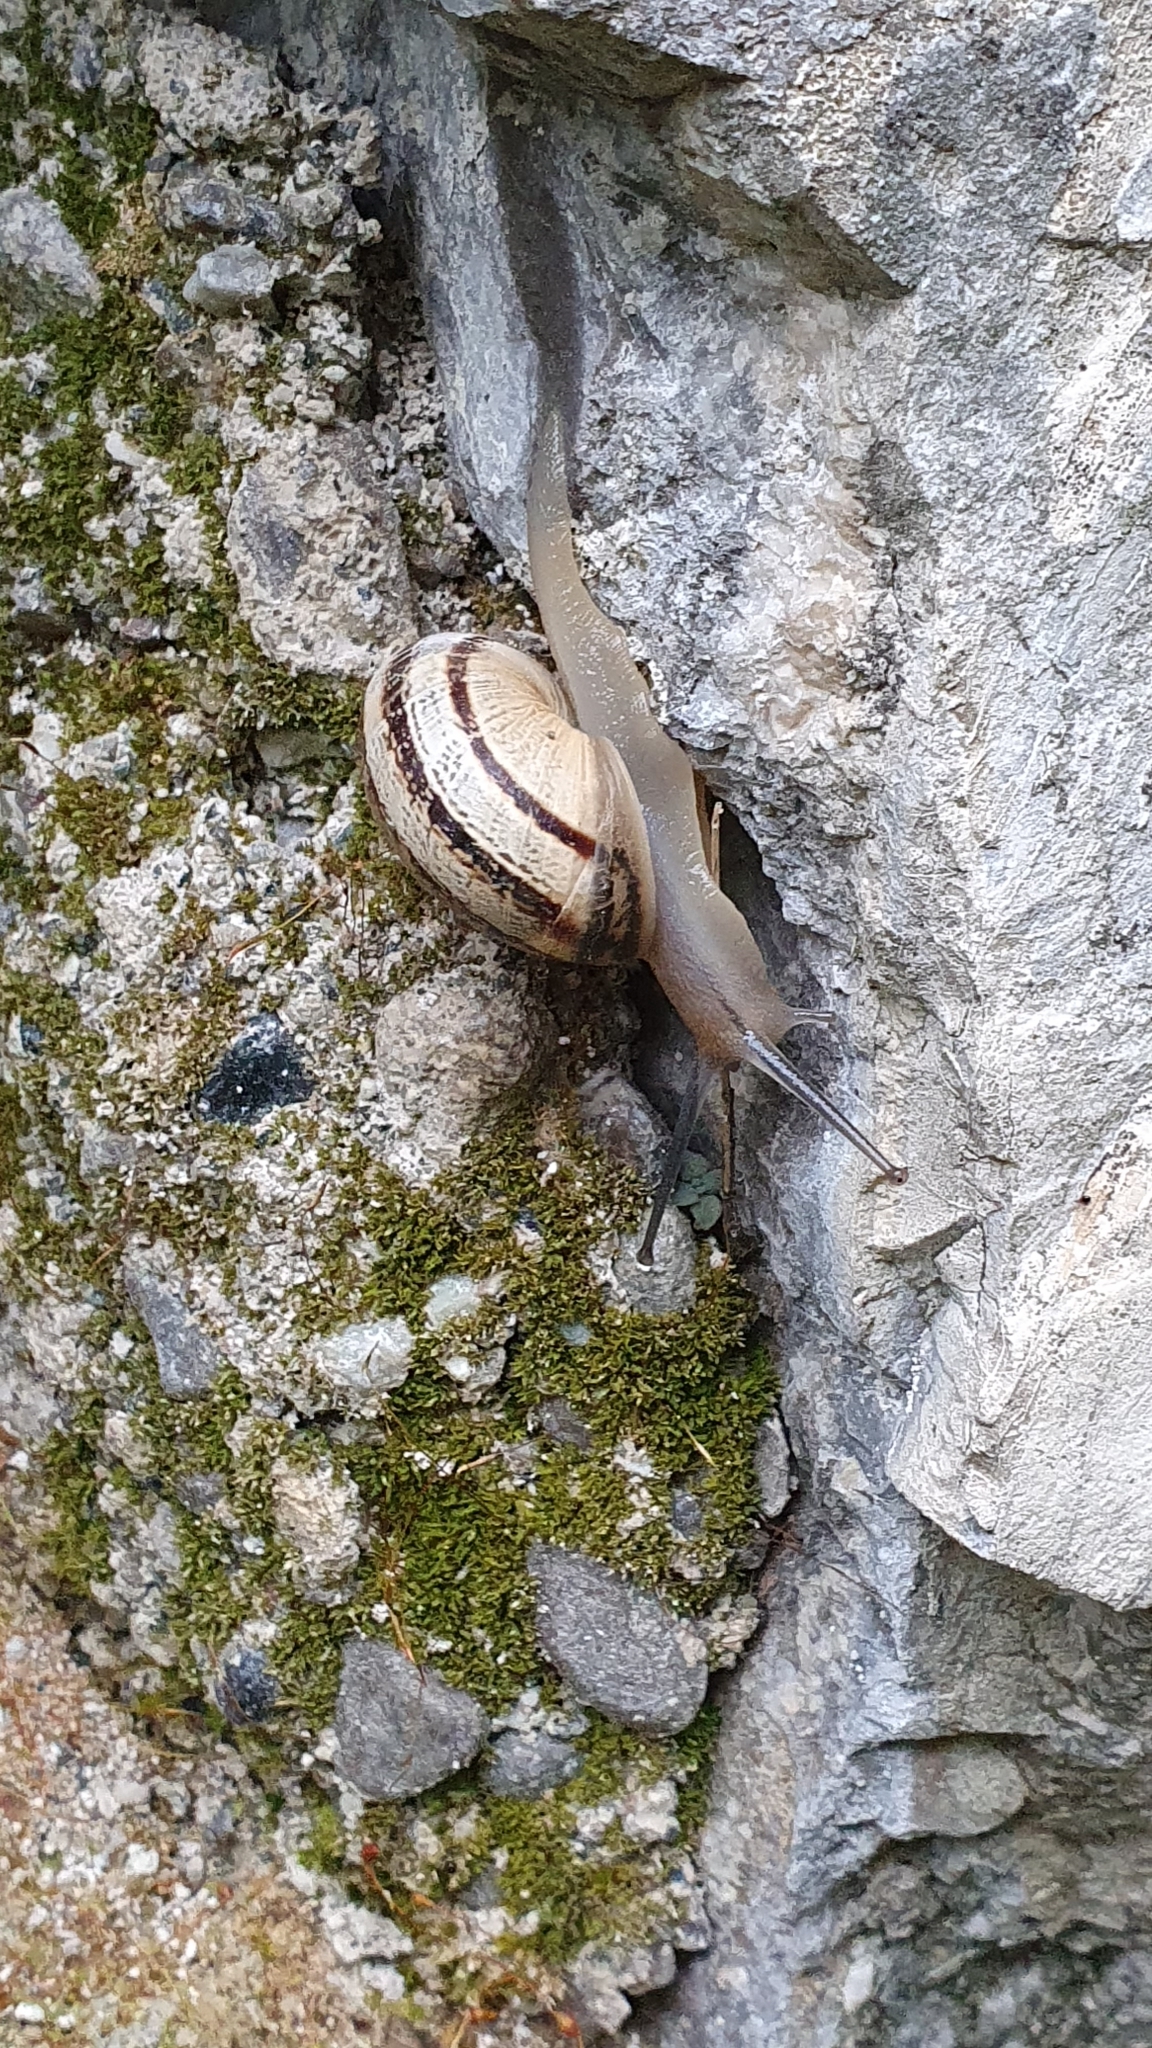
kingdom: Animalia
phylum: Mollusca
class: Gastropoda
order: Stylommatophora
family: Helicidae
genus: Eobania
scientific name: Eobania vermiculata
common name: Chocolateband snail
